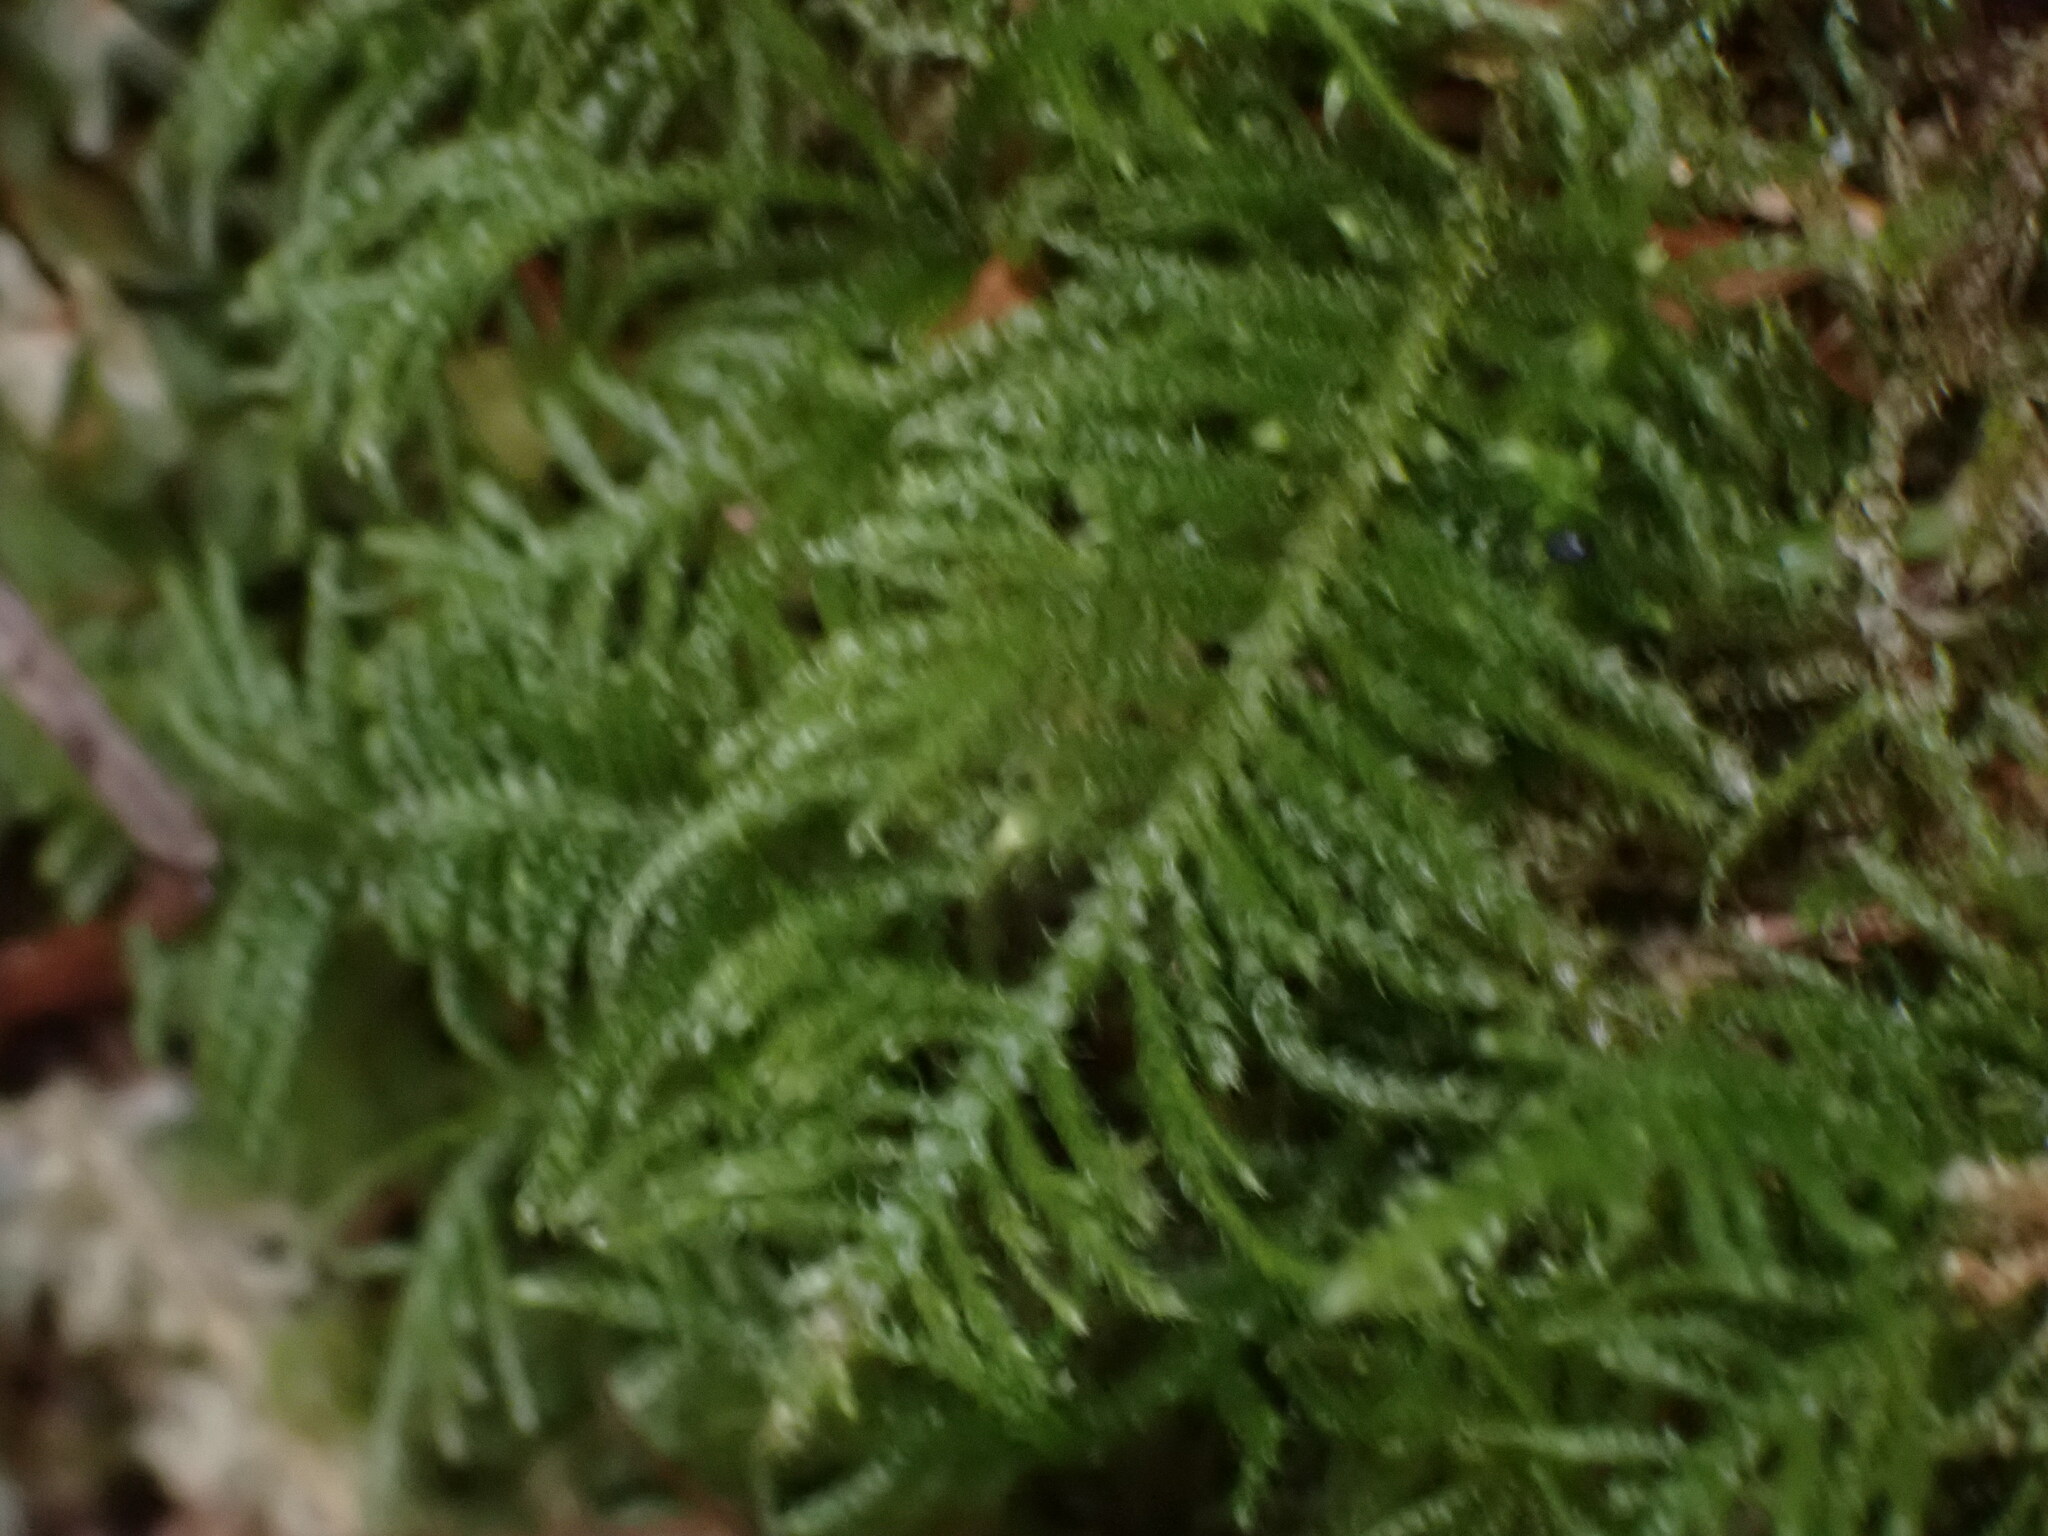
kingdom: Plantae
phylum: Bryophyta
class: Bryopsida
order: Hypnales
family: Brachytheciaceae
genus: Kindbergia
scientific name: Kindbergia oregana
